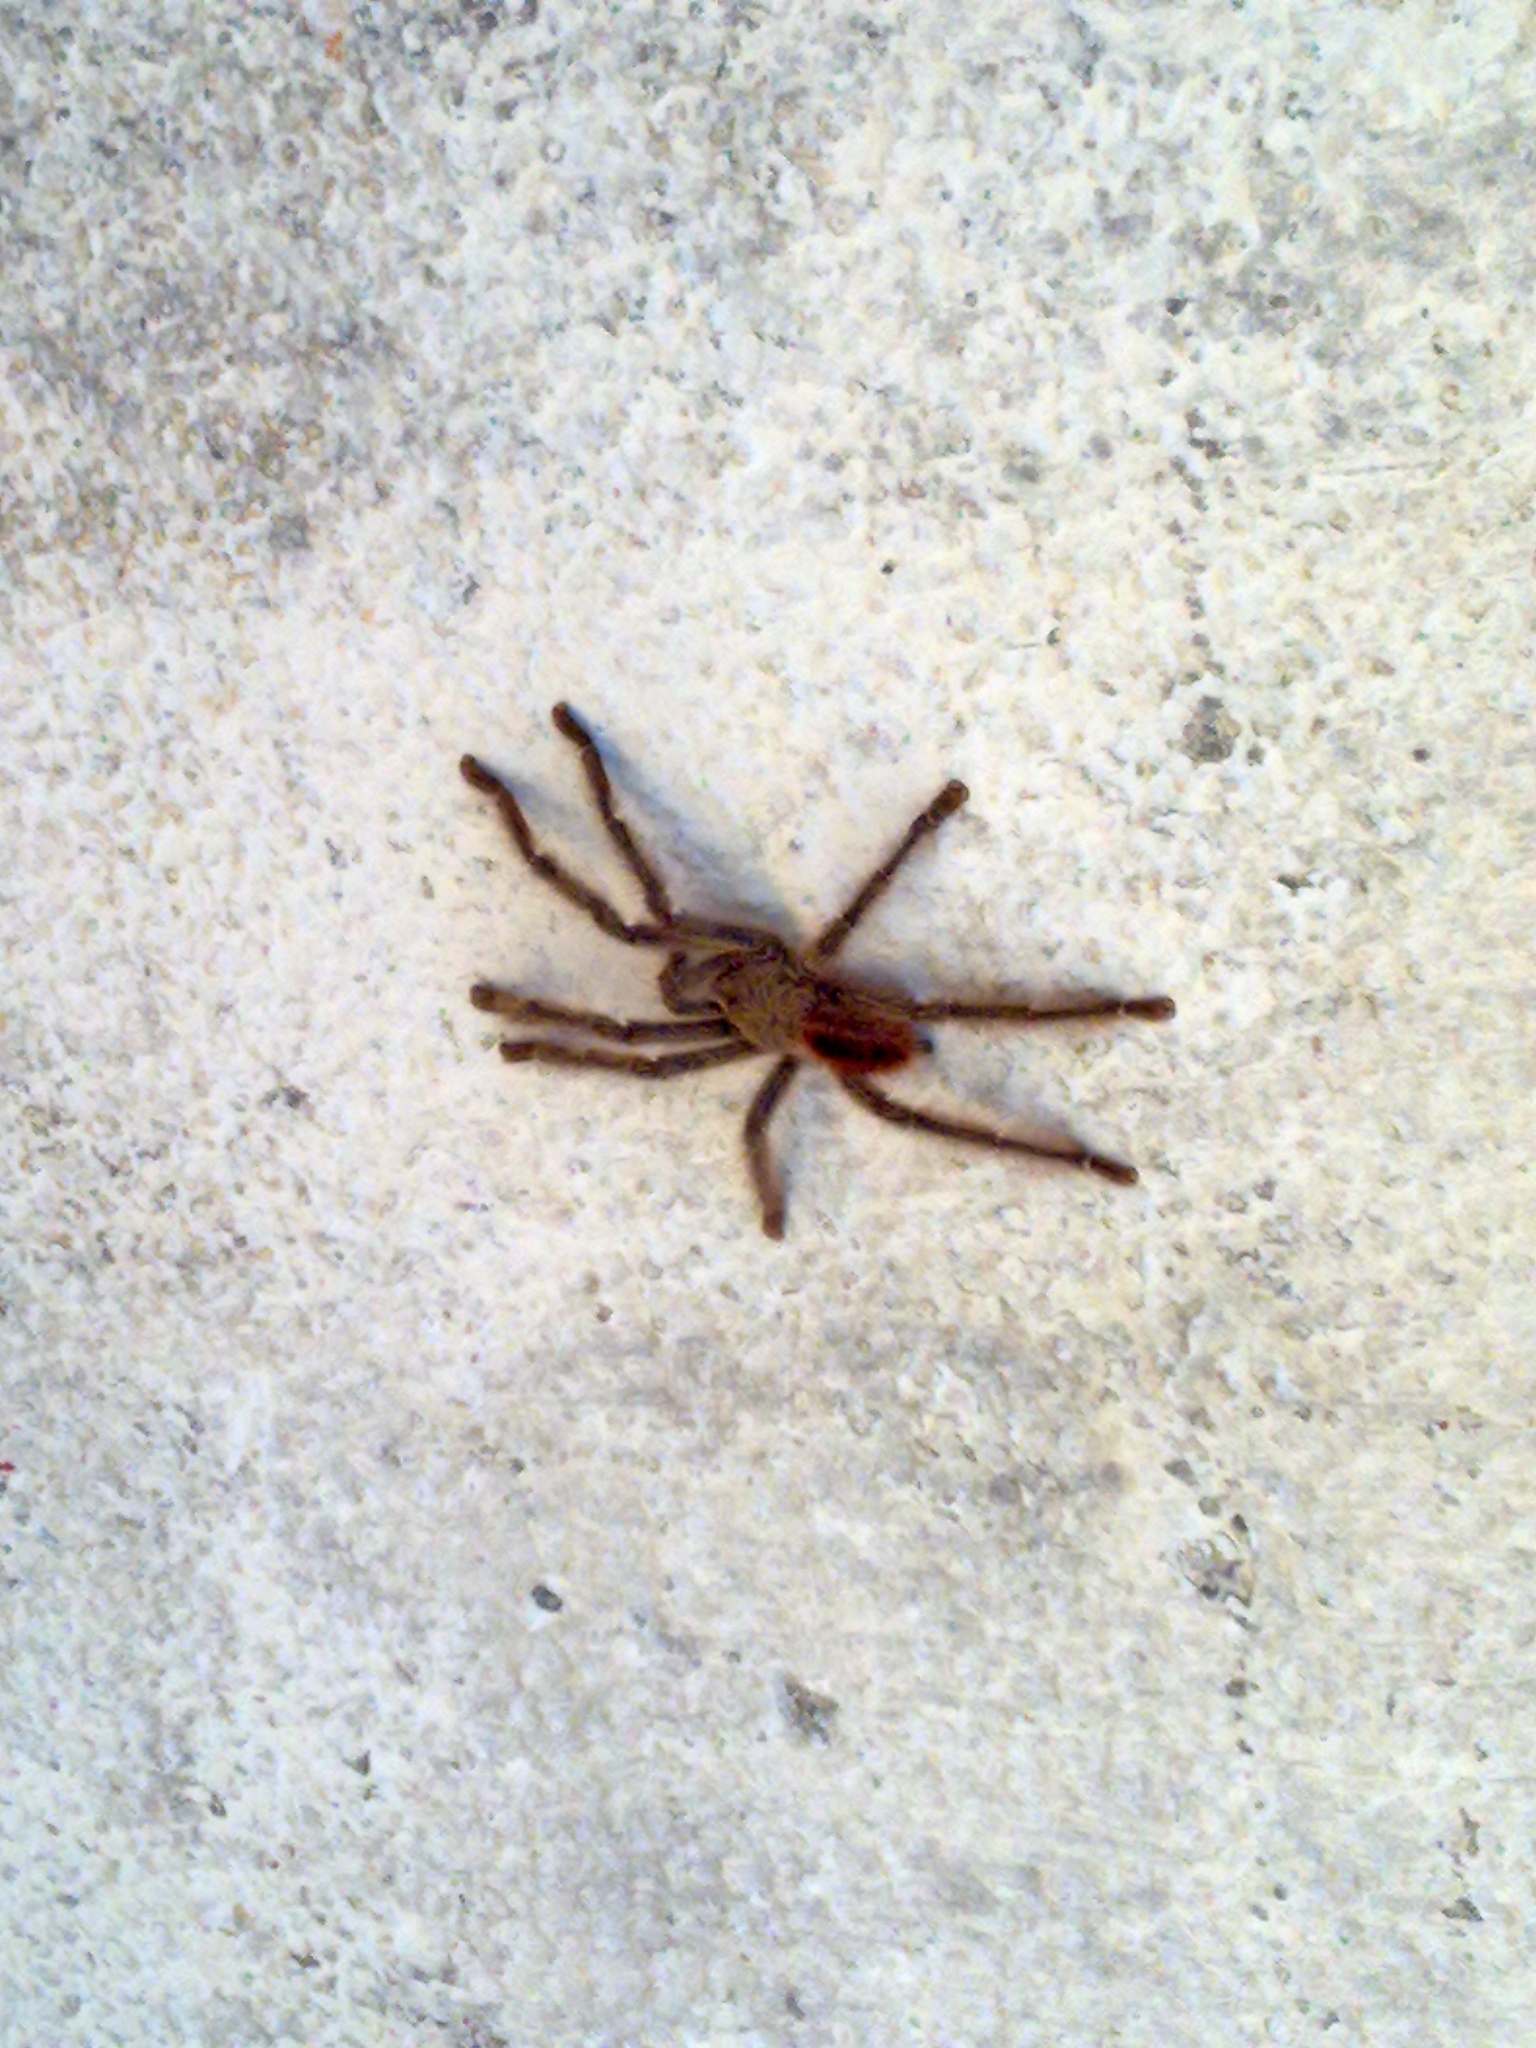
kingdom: Animalia
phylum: Arthropoda
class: Arachnida
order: Araneae
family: Theraphosidae
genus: Iridopelma
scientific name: Iridopelma hirsutum
